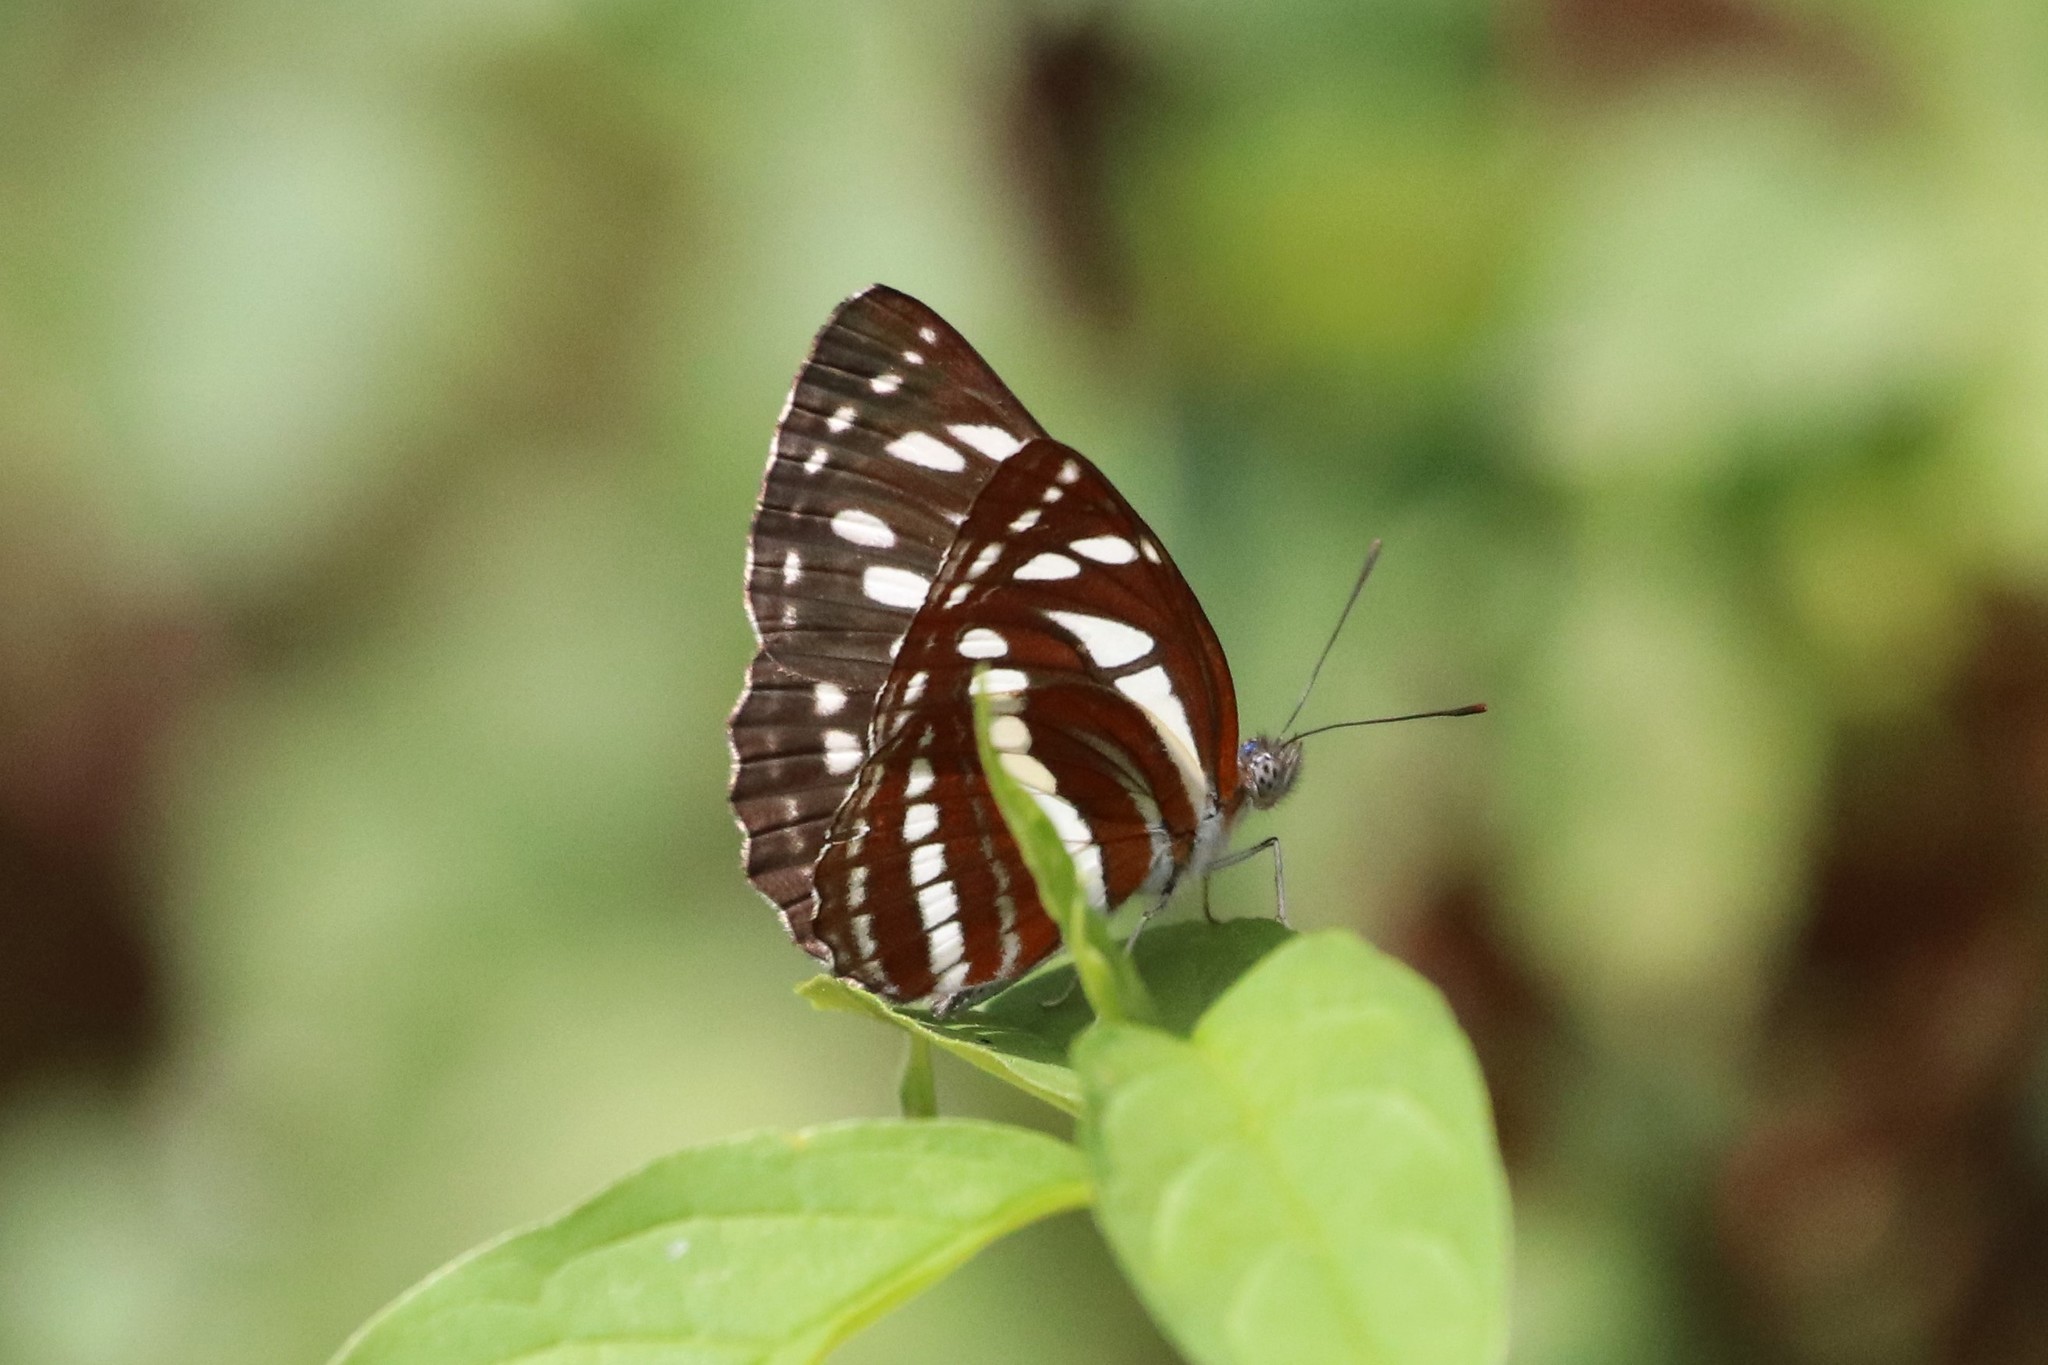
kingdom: Animalia
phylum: Arthropoda
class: Insecta
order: Lepidoptera
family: Nymphalidae
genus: Neptis
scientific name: Neptis hylas
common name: Common sailer
